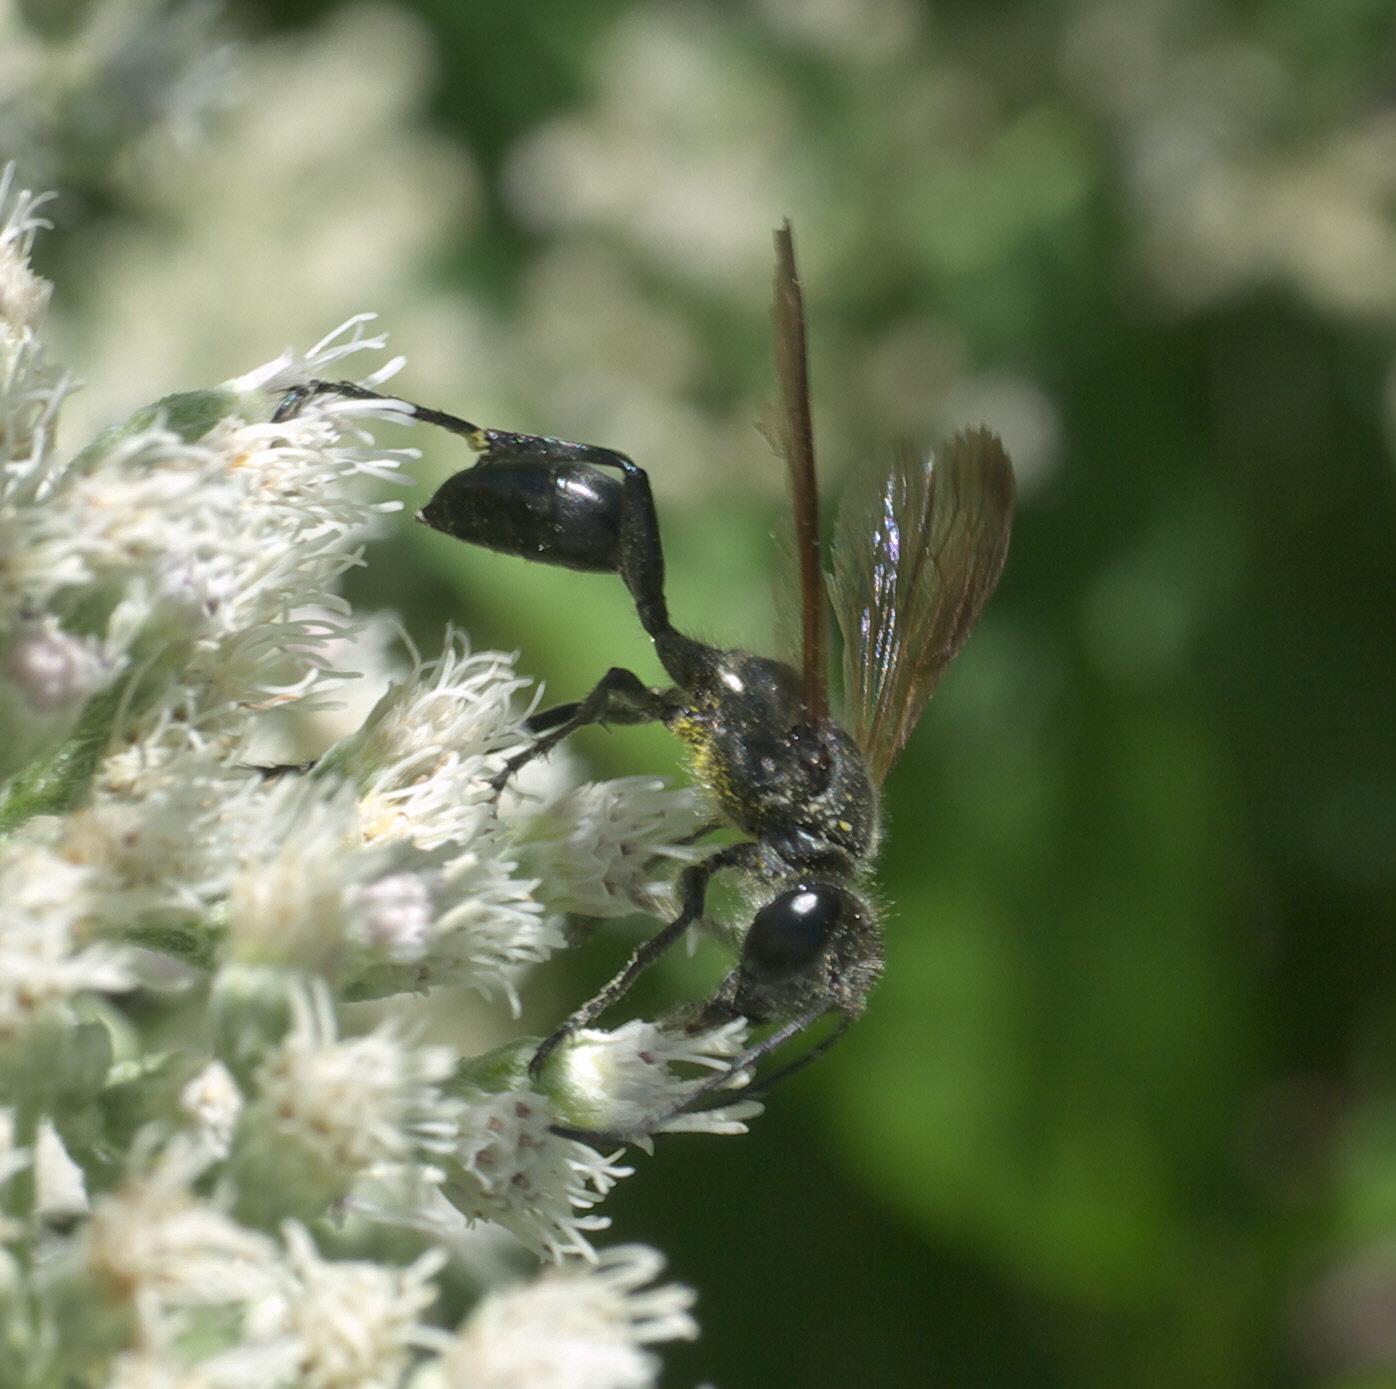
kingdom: Animalia
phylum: Arthropoda
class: Insecta
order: Hymenoptera
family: Sphecidae
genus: Isodontia
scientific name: Isodontia mexicana
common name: Mud dauber
